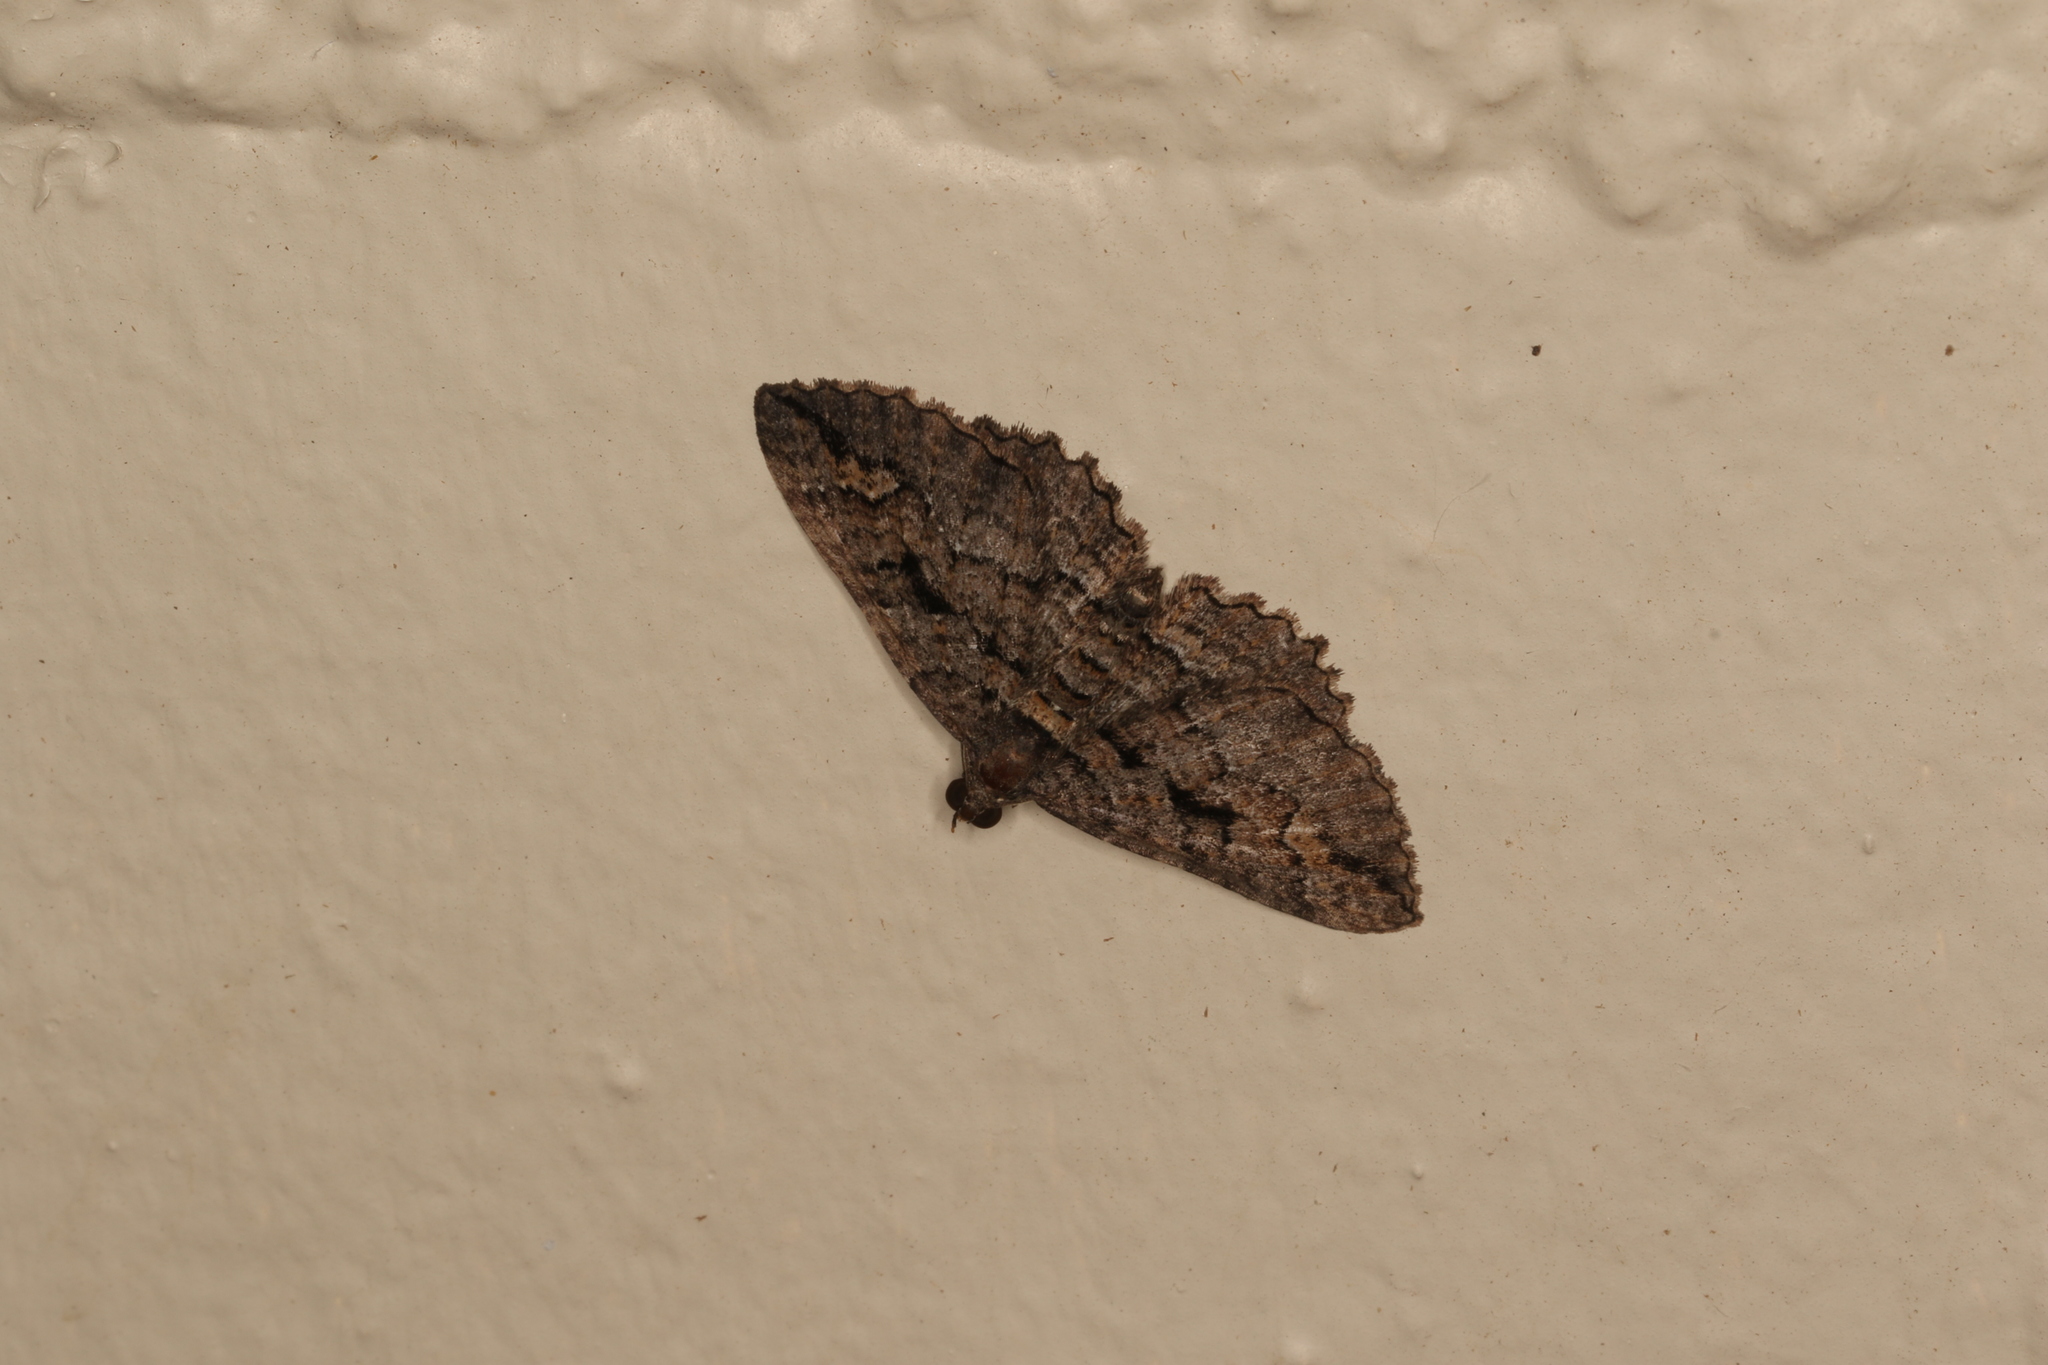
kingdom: Animalia
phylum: Arthropoda
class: Insecta
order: Lepidoptera
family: Geometridae
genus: Chrysolarentia
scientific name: Chrysolarentia plagiocausta
